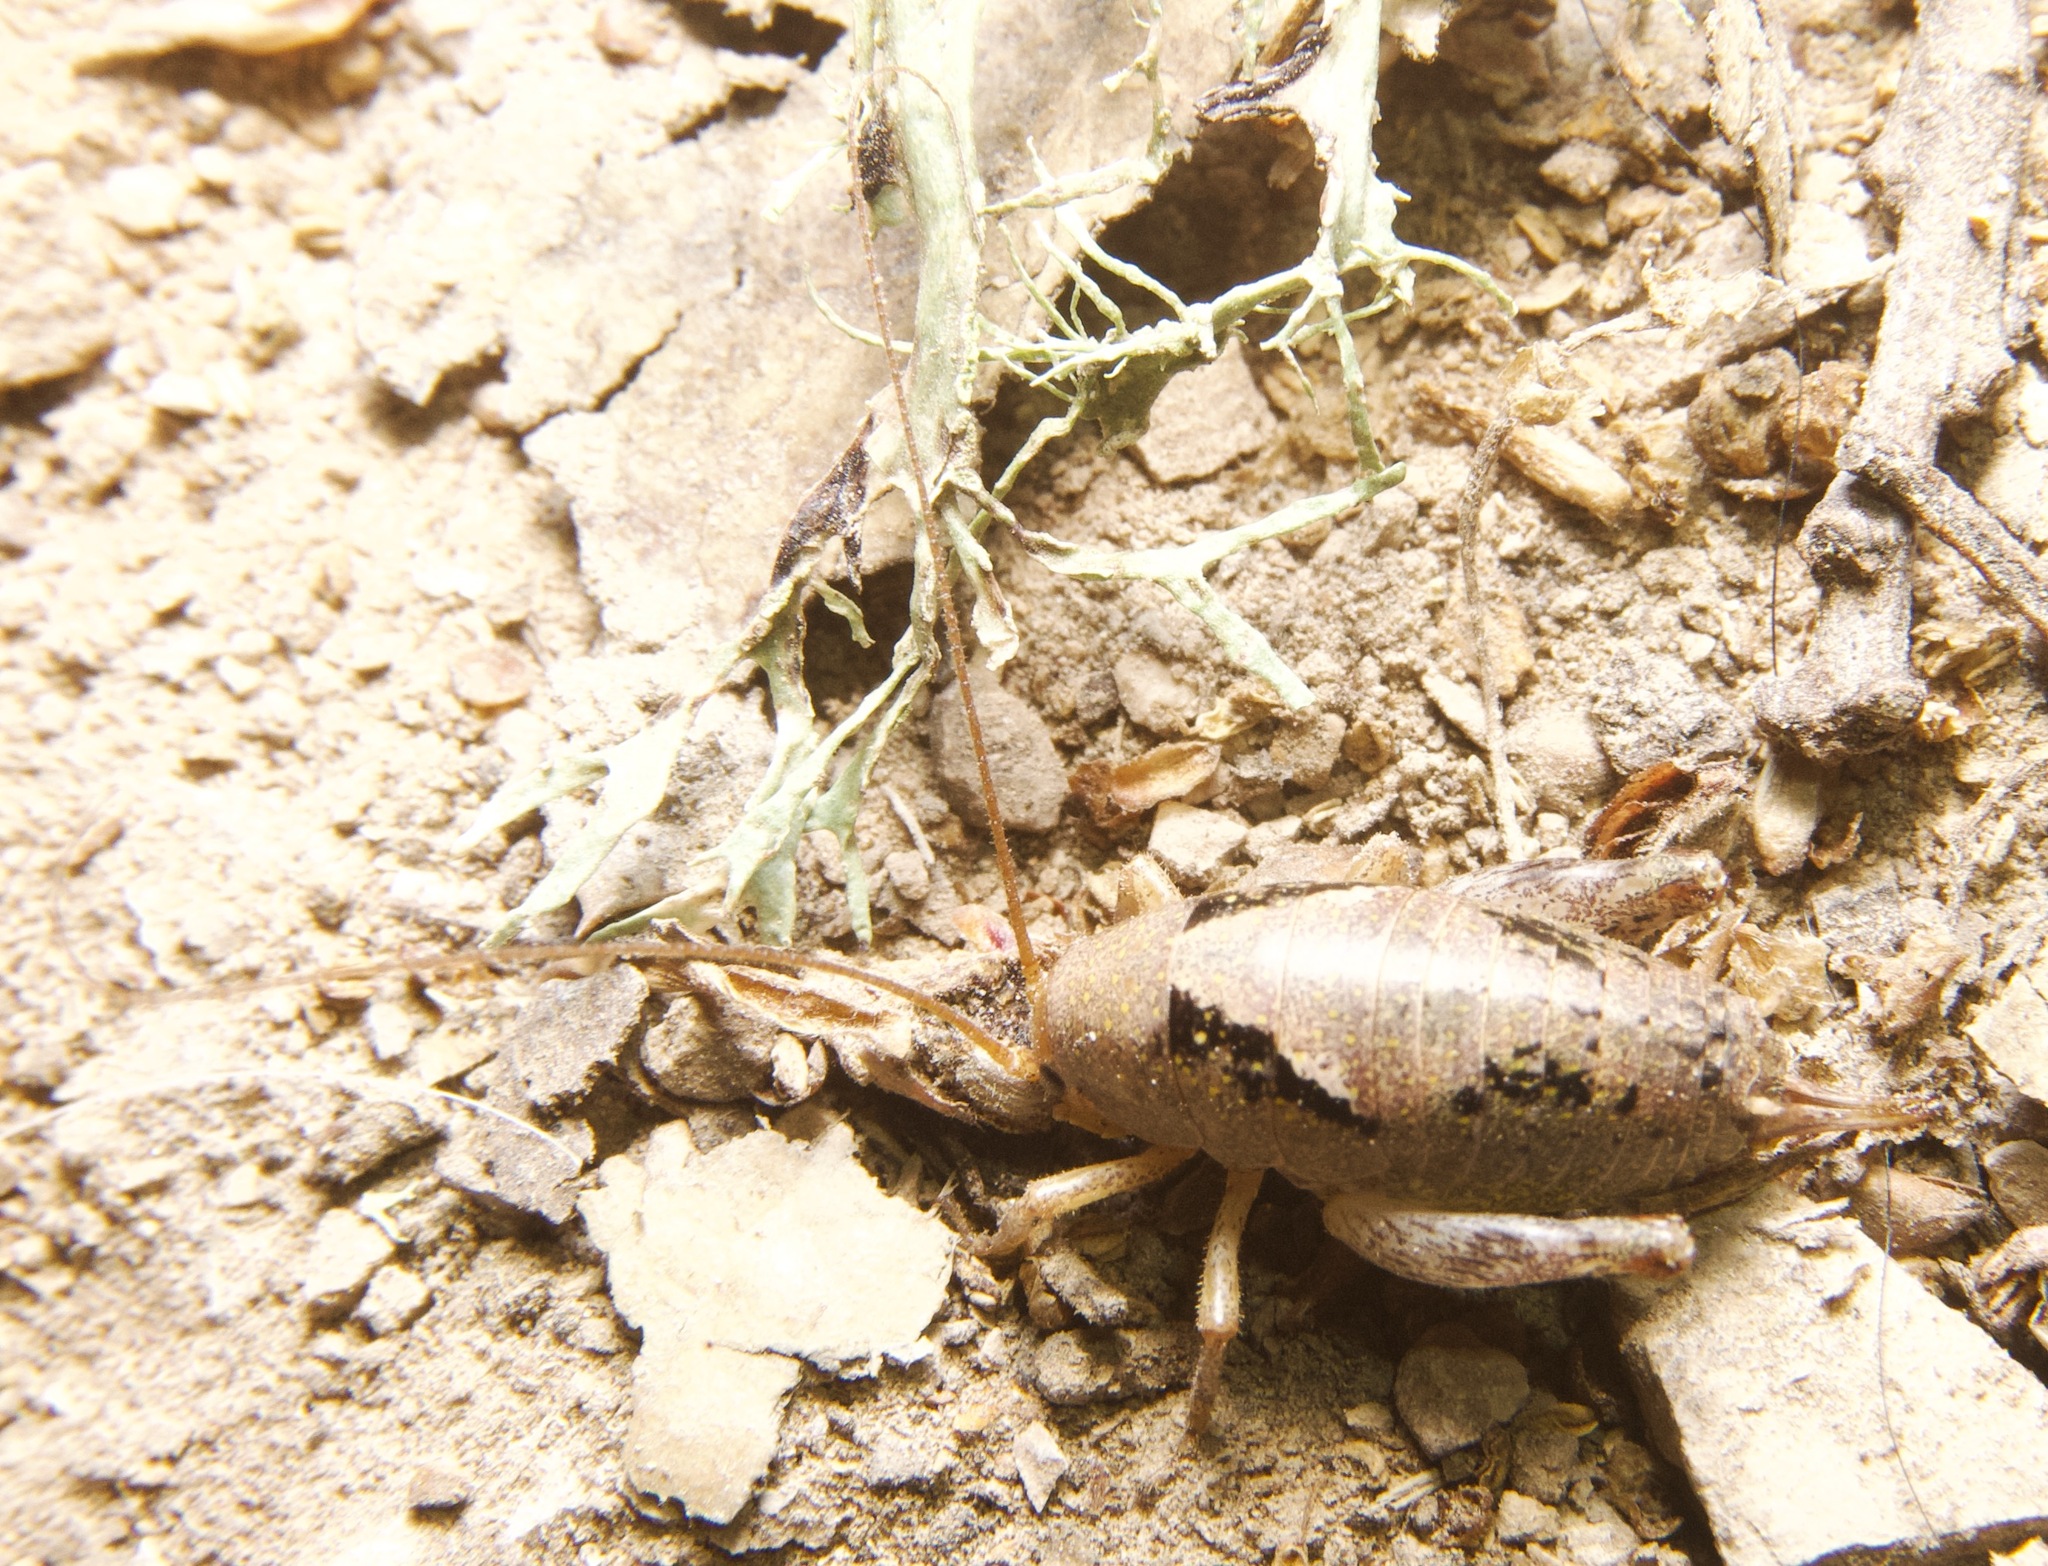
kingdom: Animalia
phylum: Arthropoda
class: Insecta
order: Orthoptera
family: Rhaphidophoridae
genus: Gammarotettix
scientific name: Gammarotettix bilobatus
